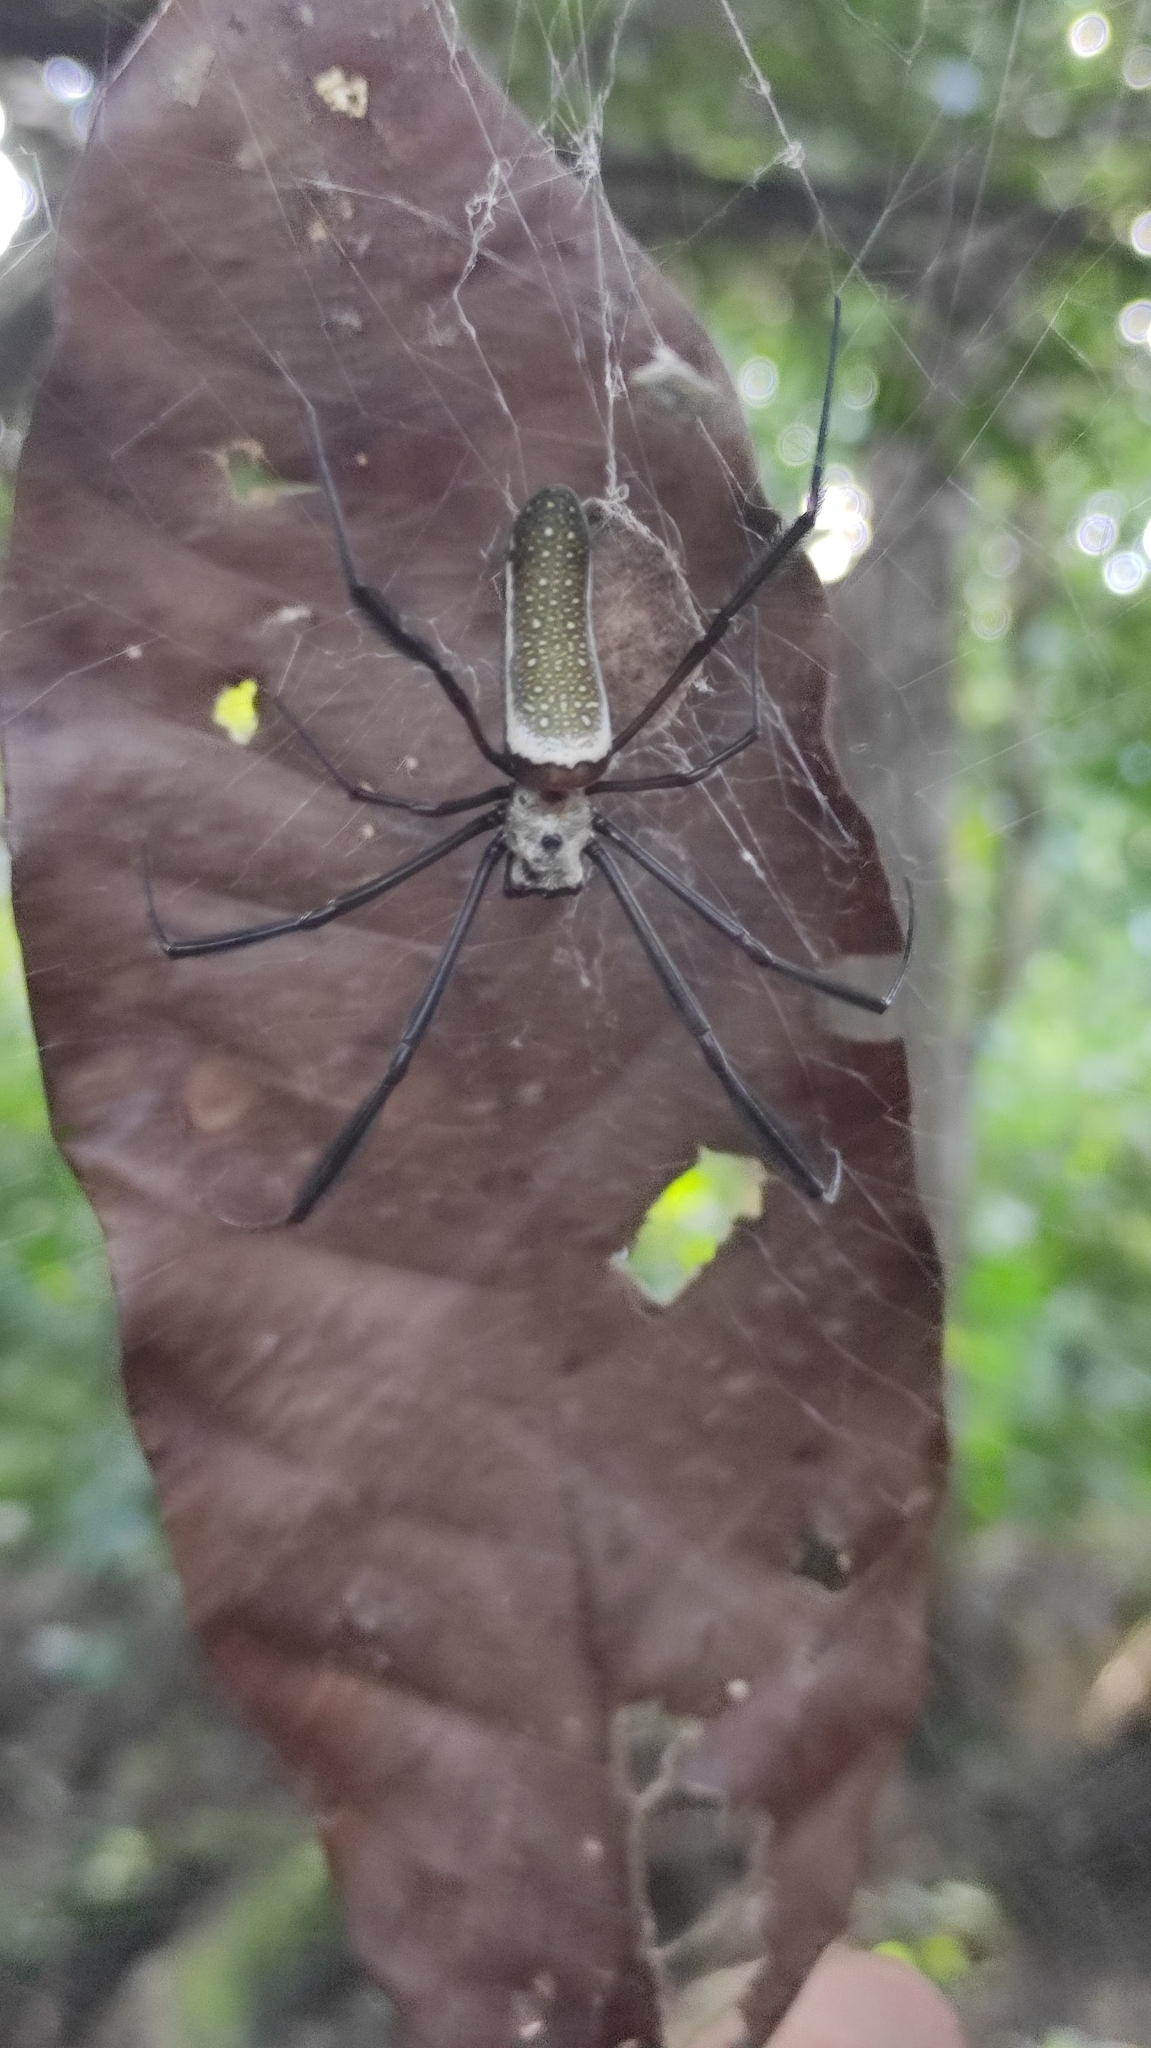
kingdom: Animalia
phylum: Arthropoda
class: Arachnida
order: Araneae
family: Araneidae
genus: Trichonephila
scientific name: Trichonephila clavipes
